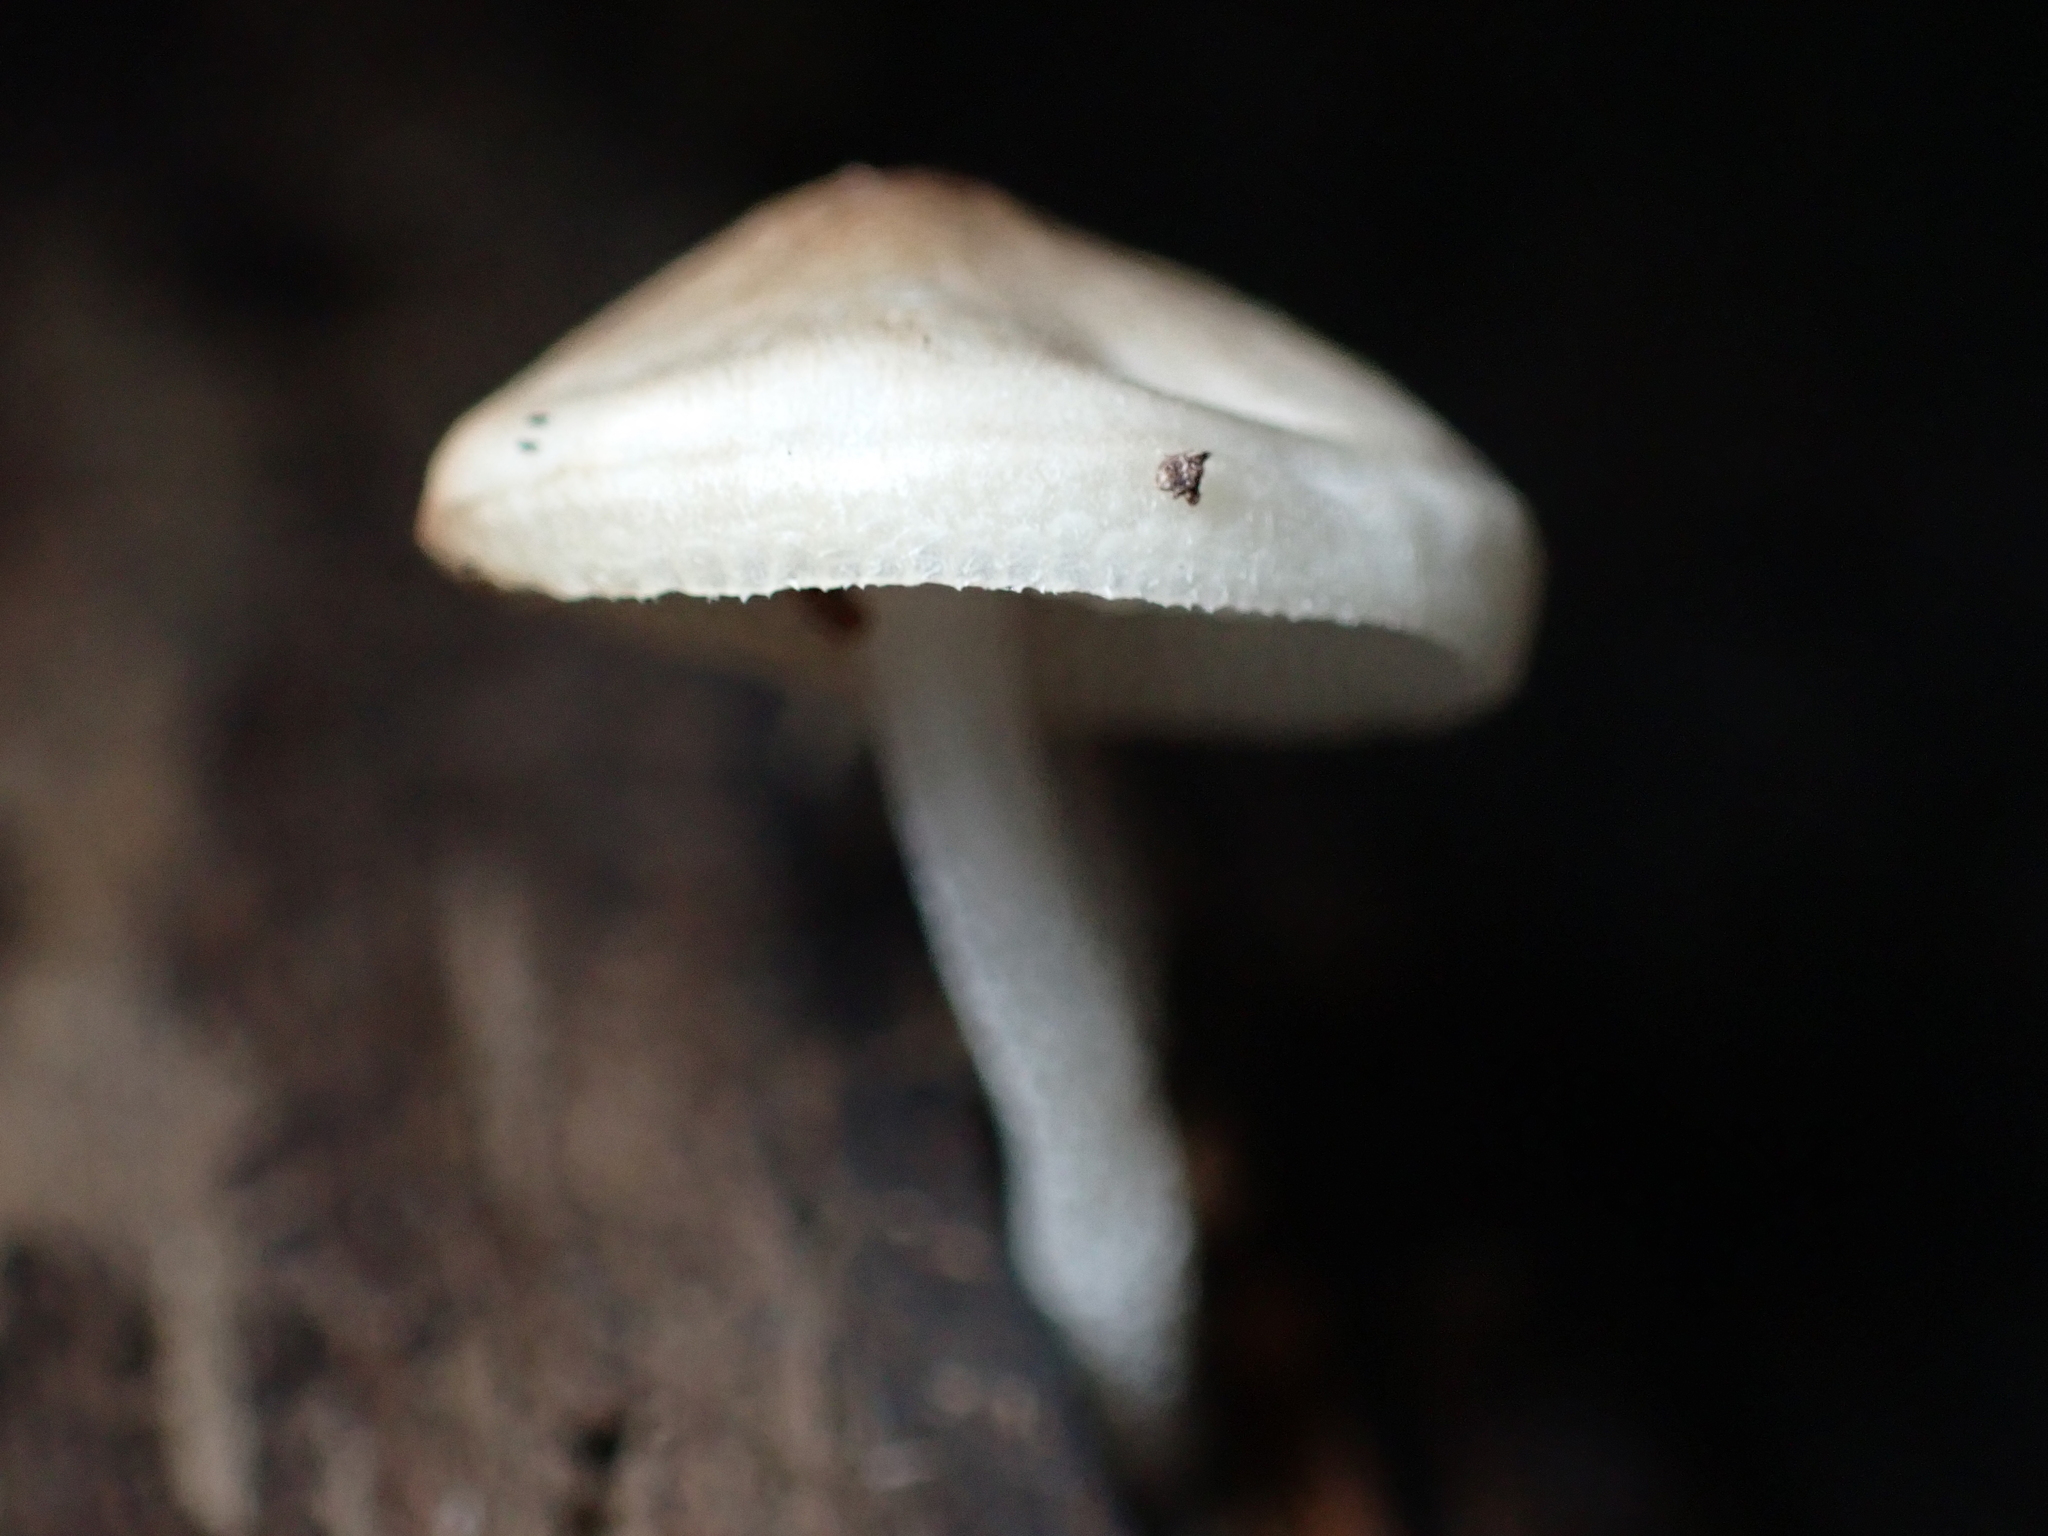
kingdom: Fungi
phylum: Basidiomycota
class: Agaricomycetes
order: Agaricales
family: Mycenaceae
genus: Filoboletus
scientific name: Filoboletus manipularis
